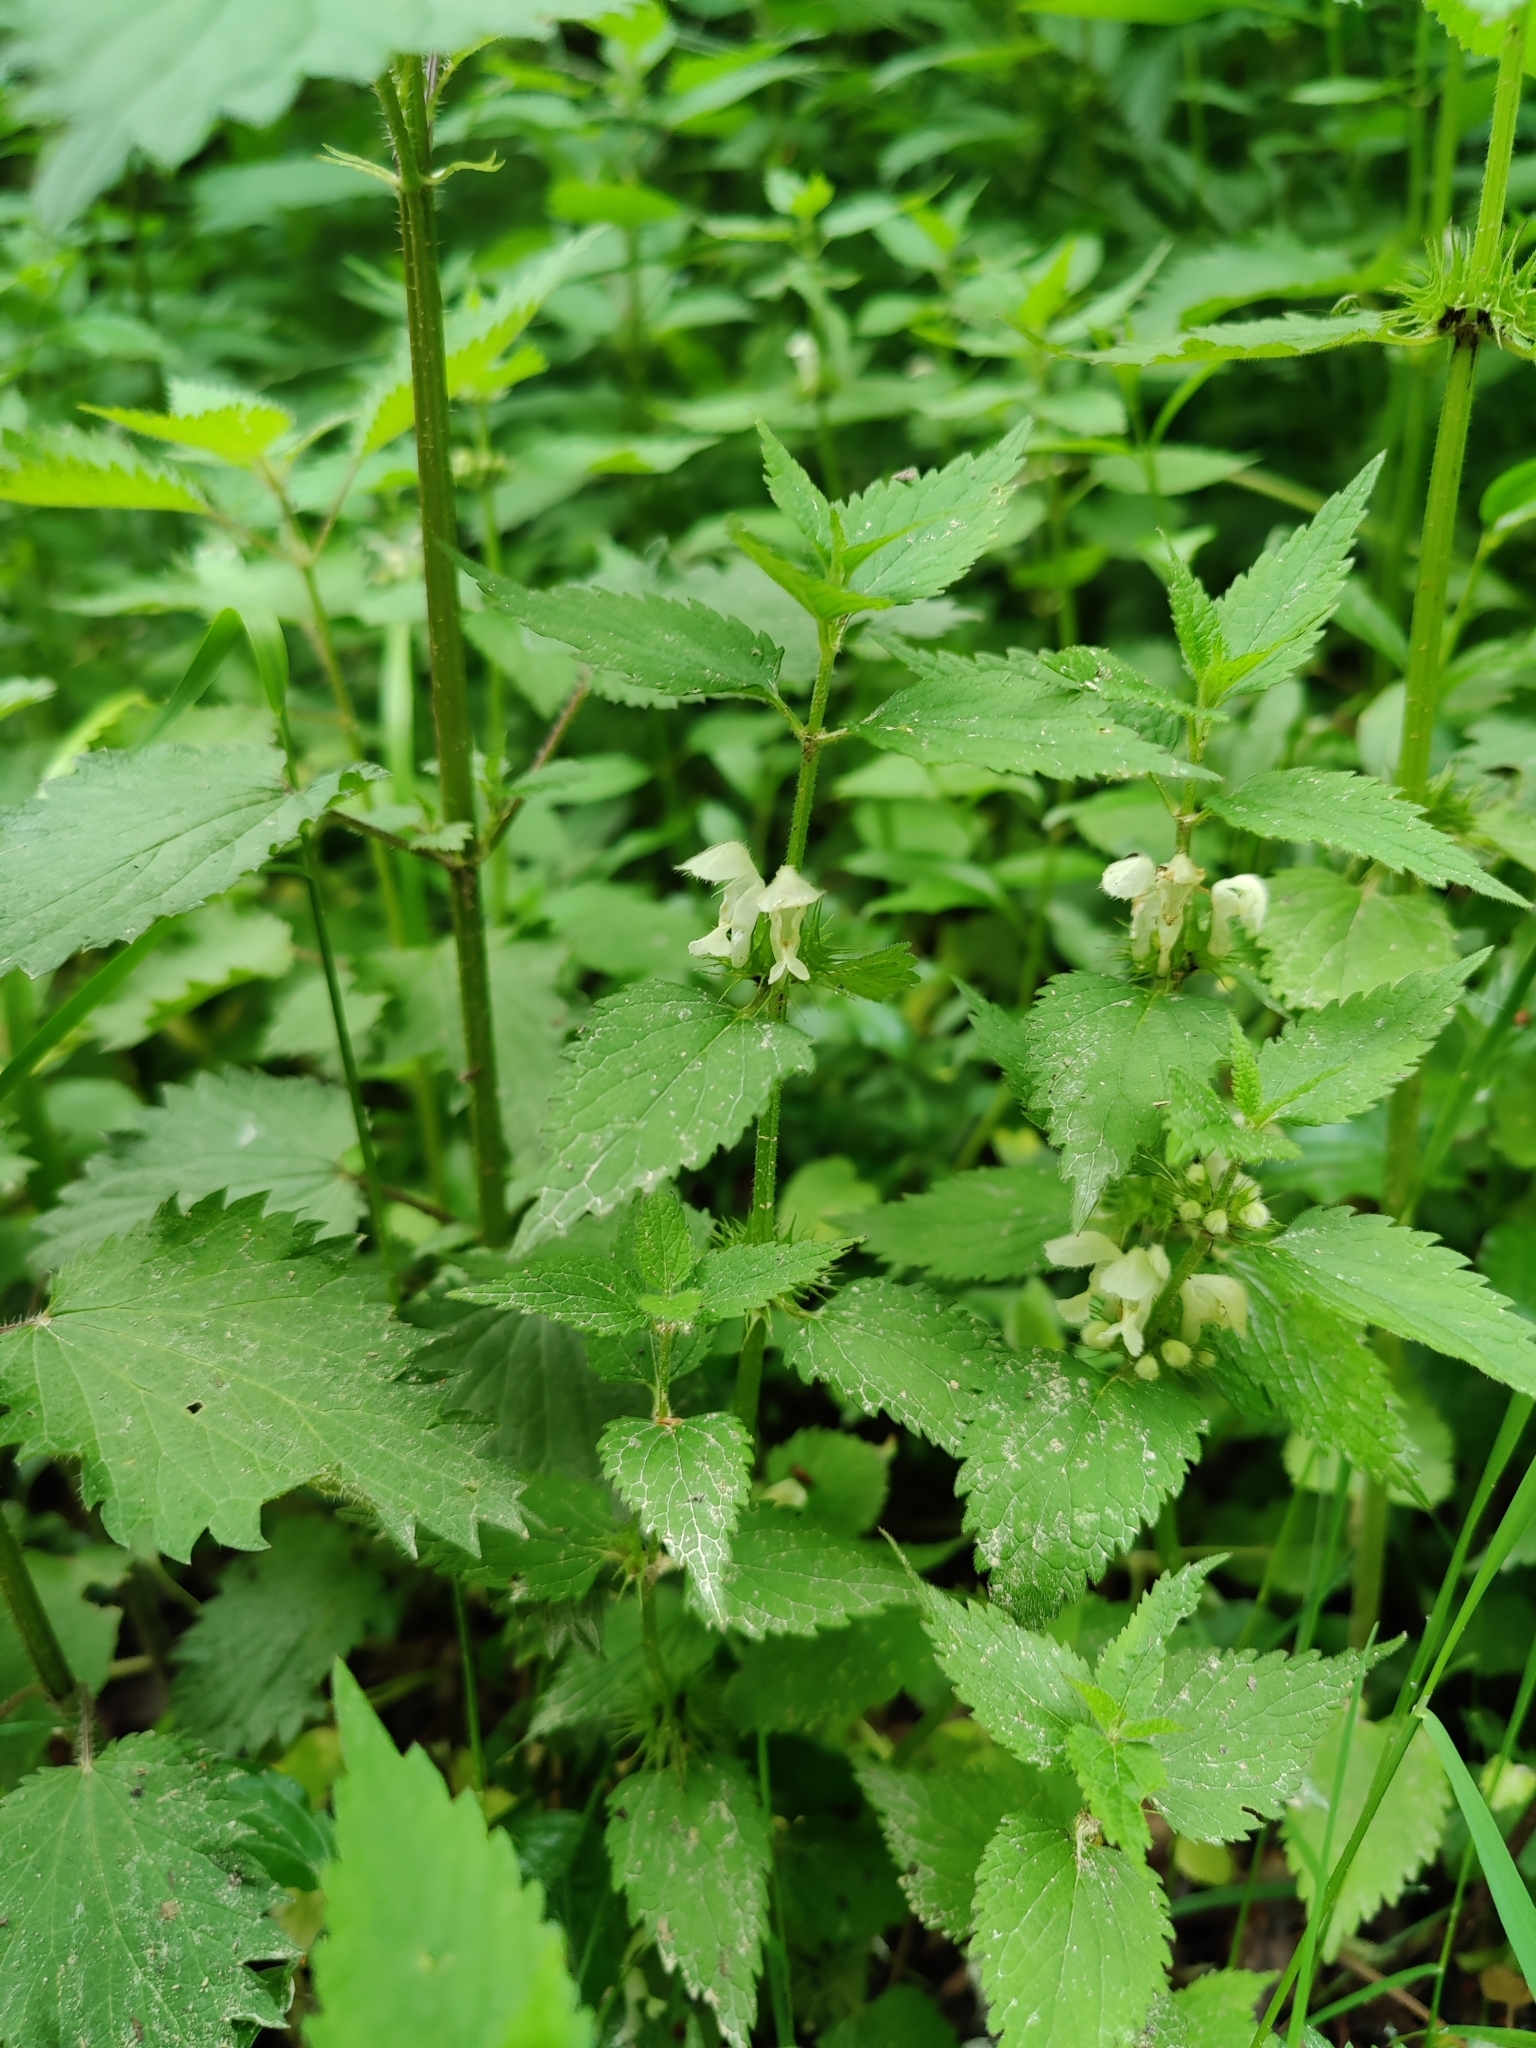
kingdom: Plantae
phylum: Tracheophyta
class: Magnoliopsida
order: Lamiales
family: Lamiaceae
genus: Lamium
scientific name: Lamium album
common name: White dead-nettle
